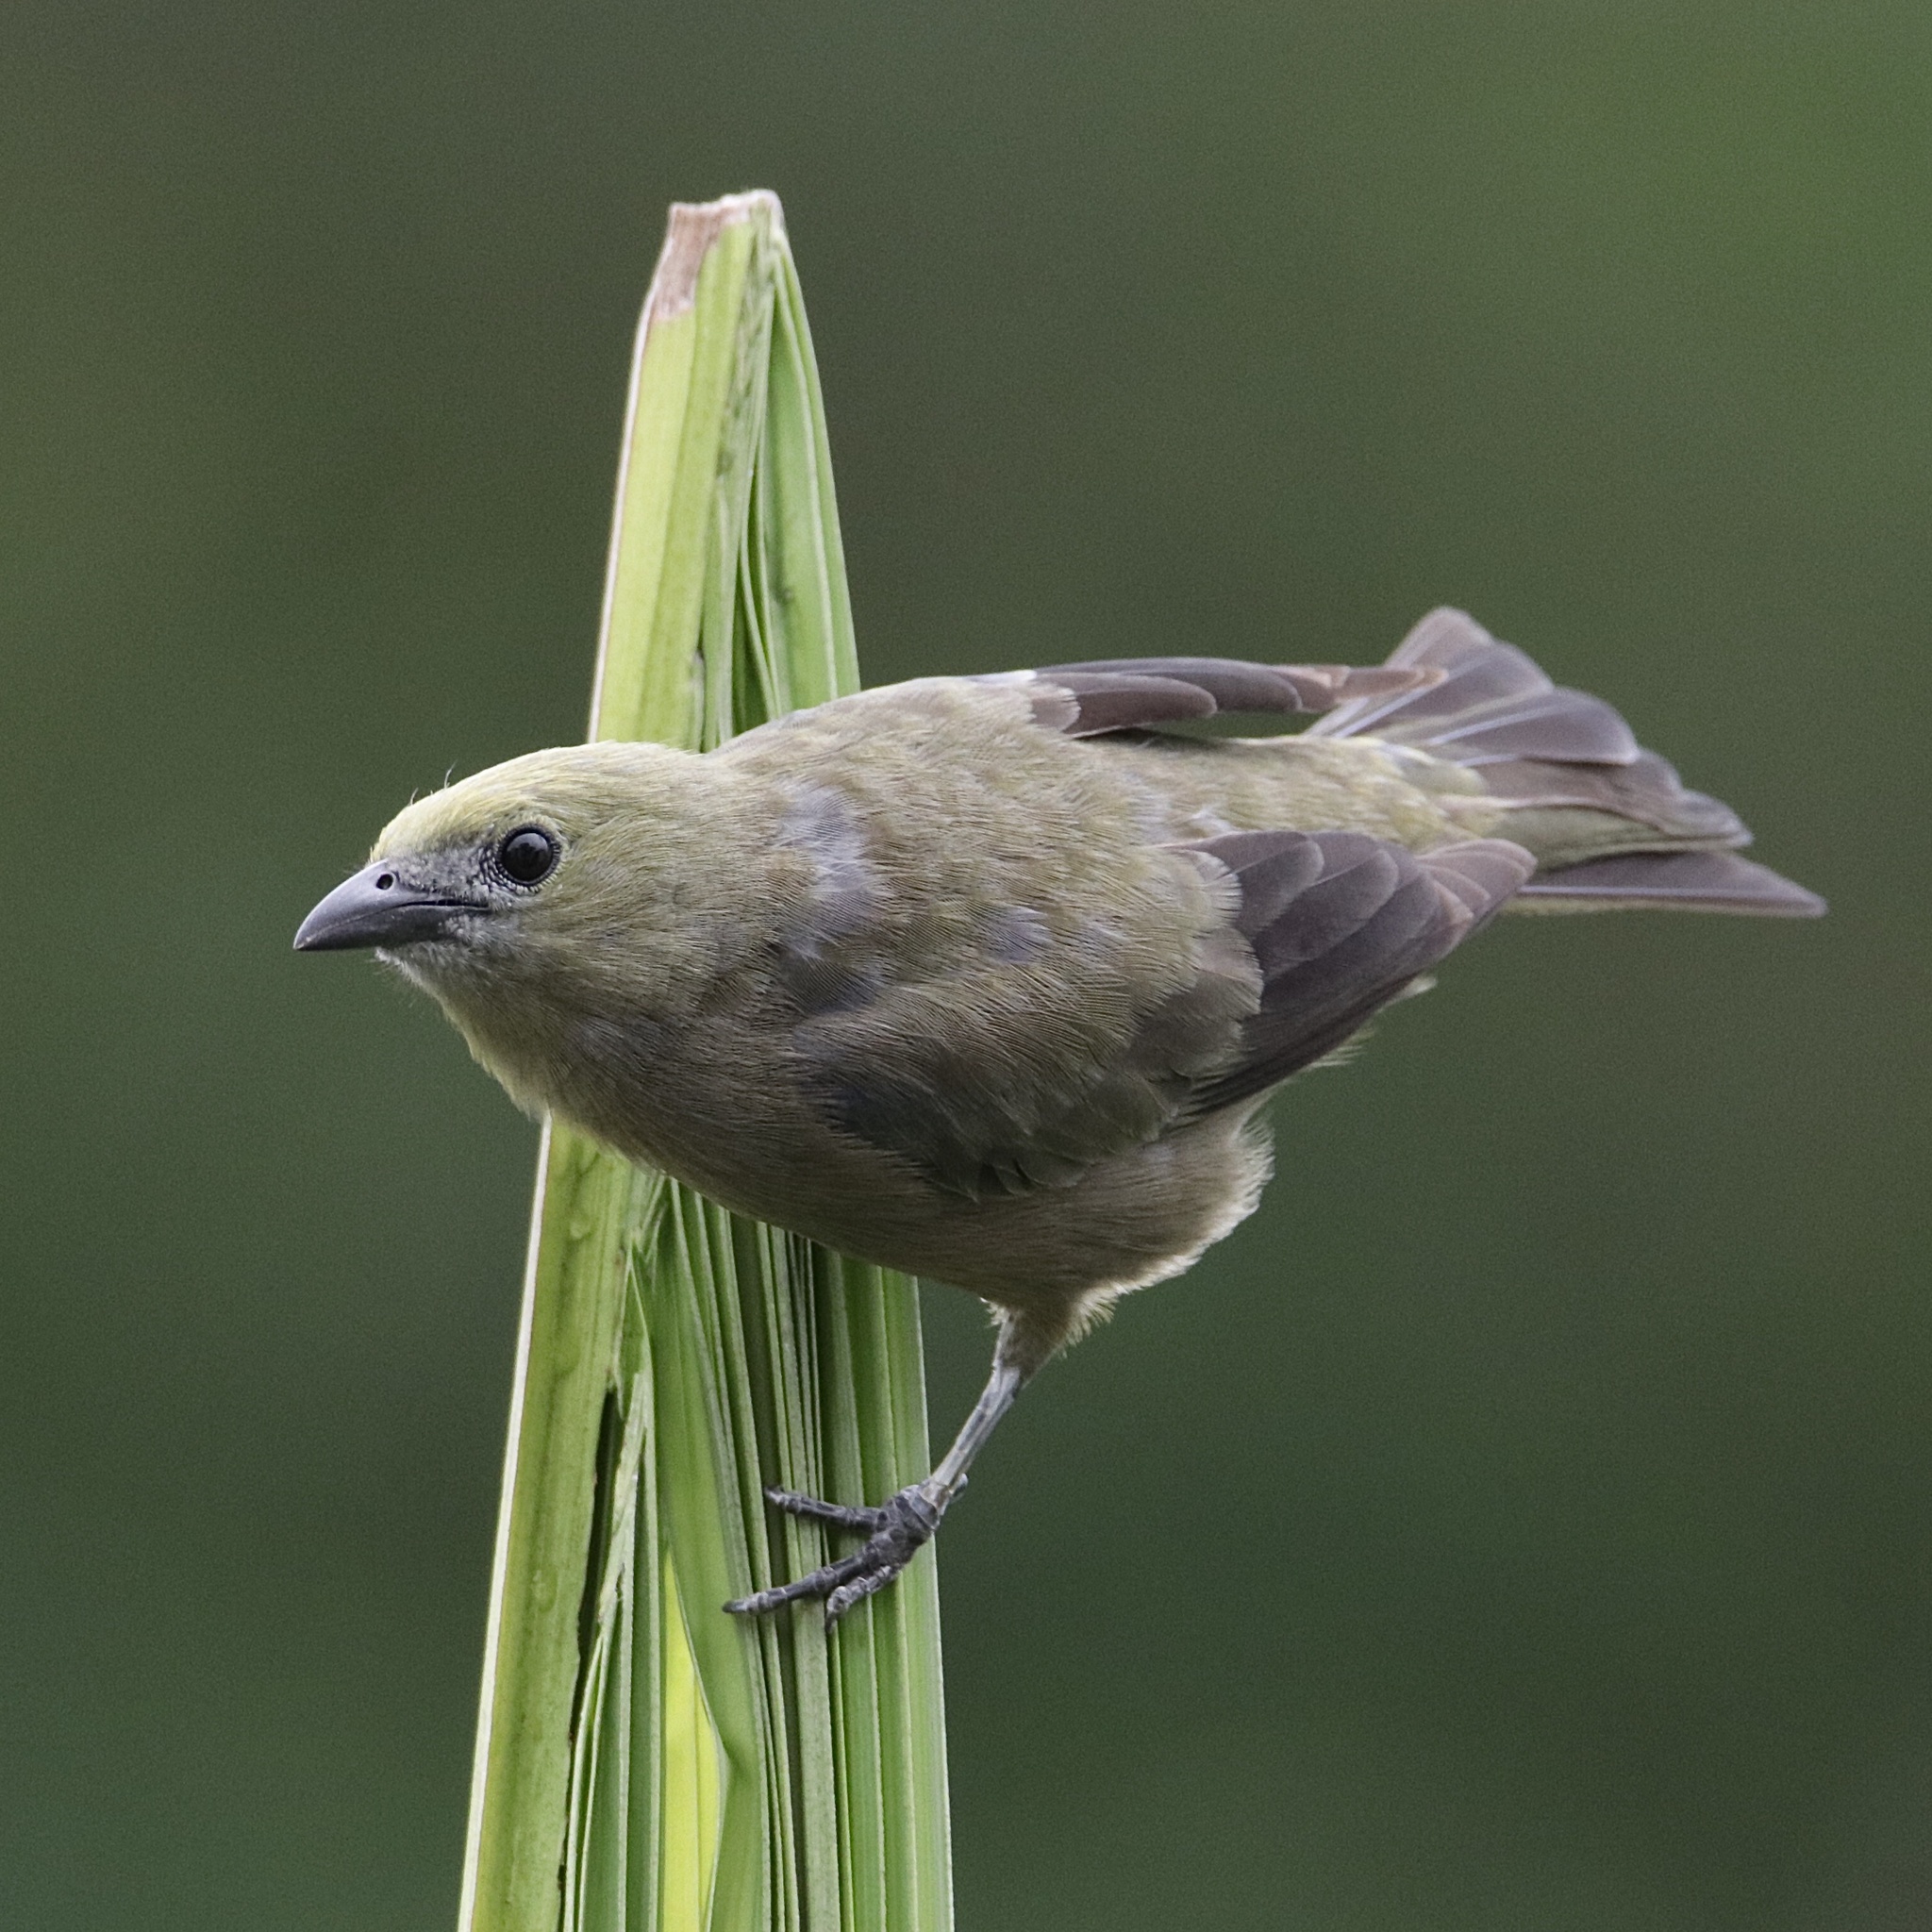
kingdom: Animalia
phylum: Chordata
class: Aves
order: Passeriformes
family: Thraupidae
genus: Thraupis
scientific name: Thraupis palmarum
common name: Palm tanager
